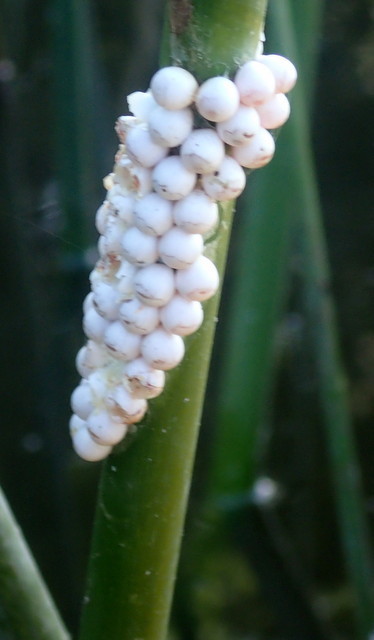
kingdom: Animalia
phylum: Mollusca
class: Gastropoda
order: Architaenioglossa
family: Ampullariidae
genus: Pomacea
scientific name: Pomacea paludosa
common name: Florida applesnail
